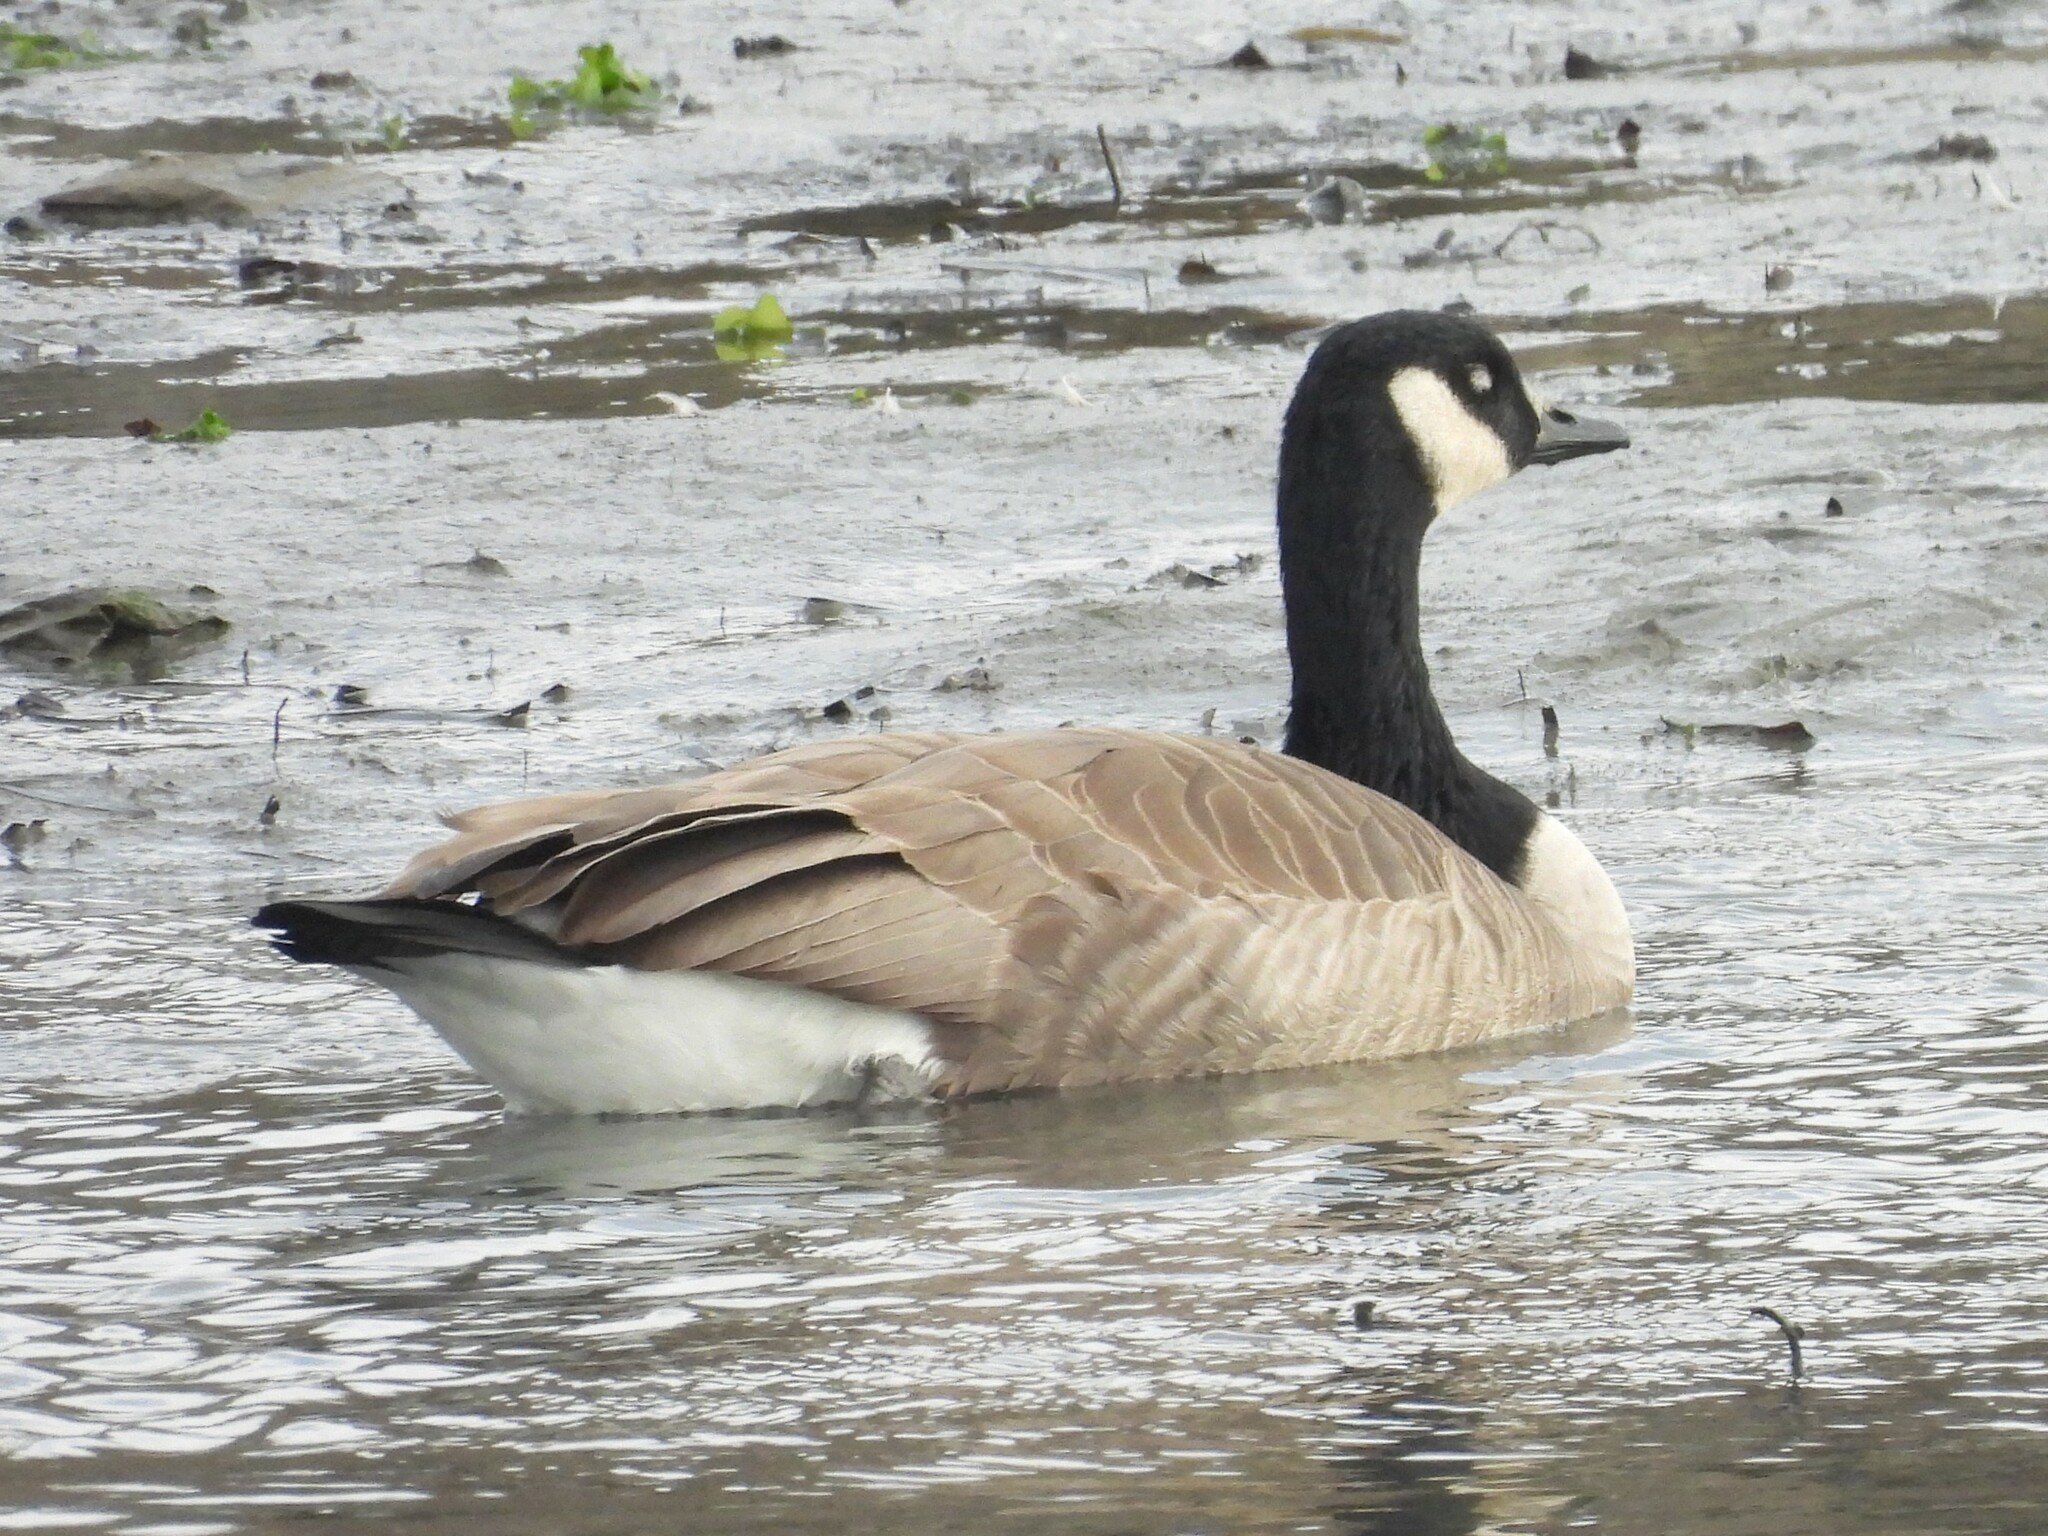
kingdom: Animalia
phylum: Chordata
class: Aves
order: Anseriformes
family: Anatidae
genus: Branta
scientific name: Branta canadensis
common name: Canada goose
